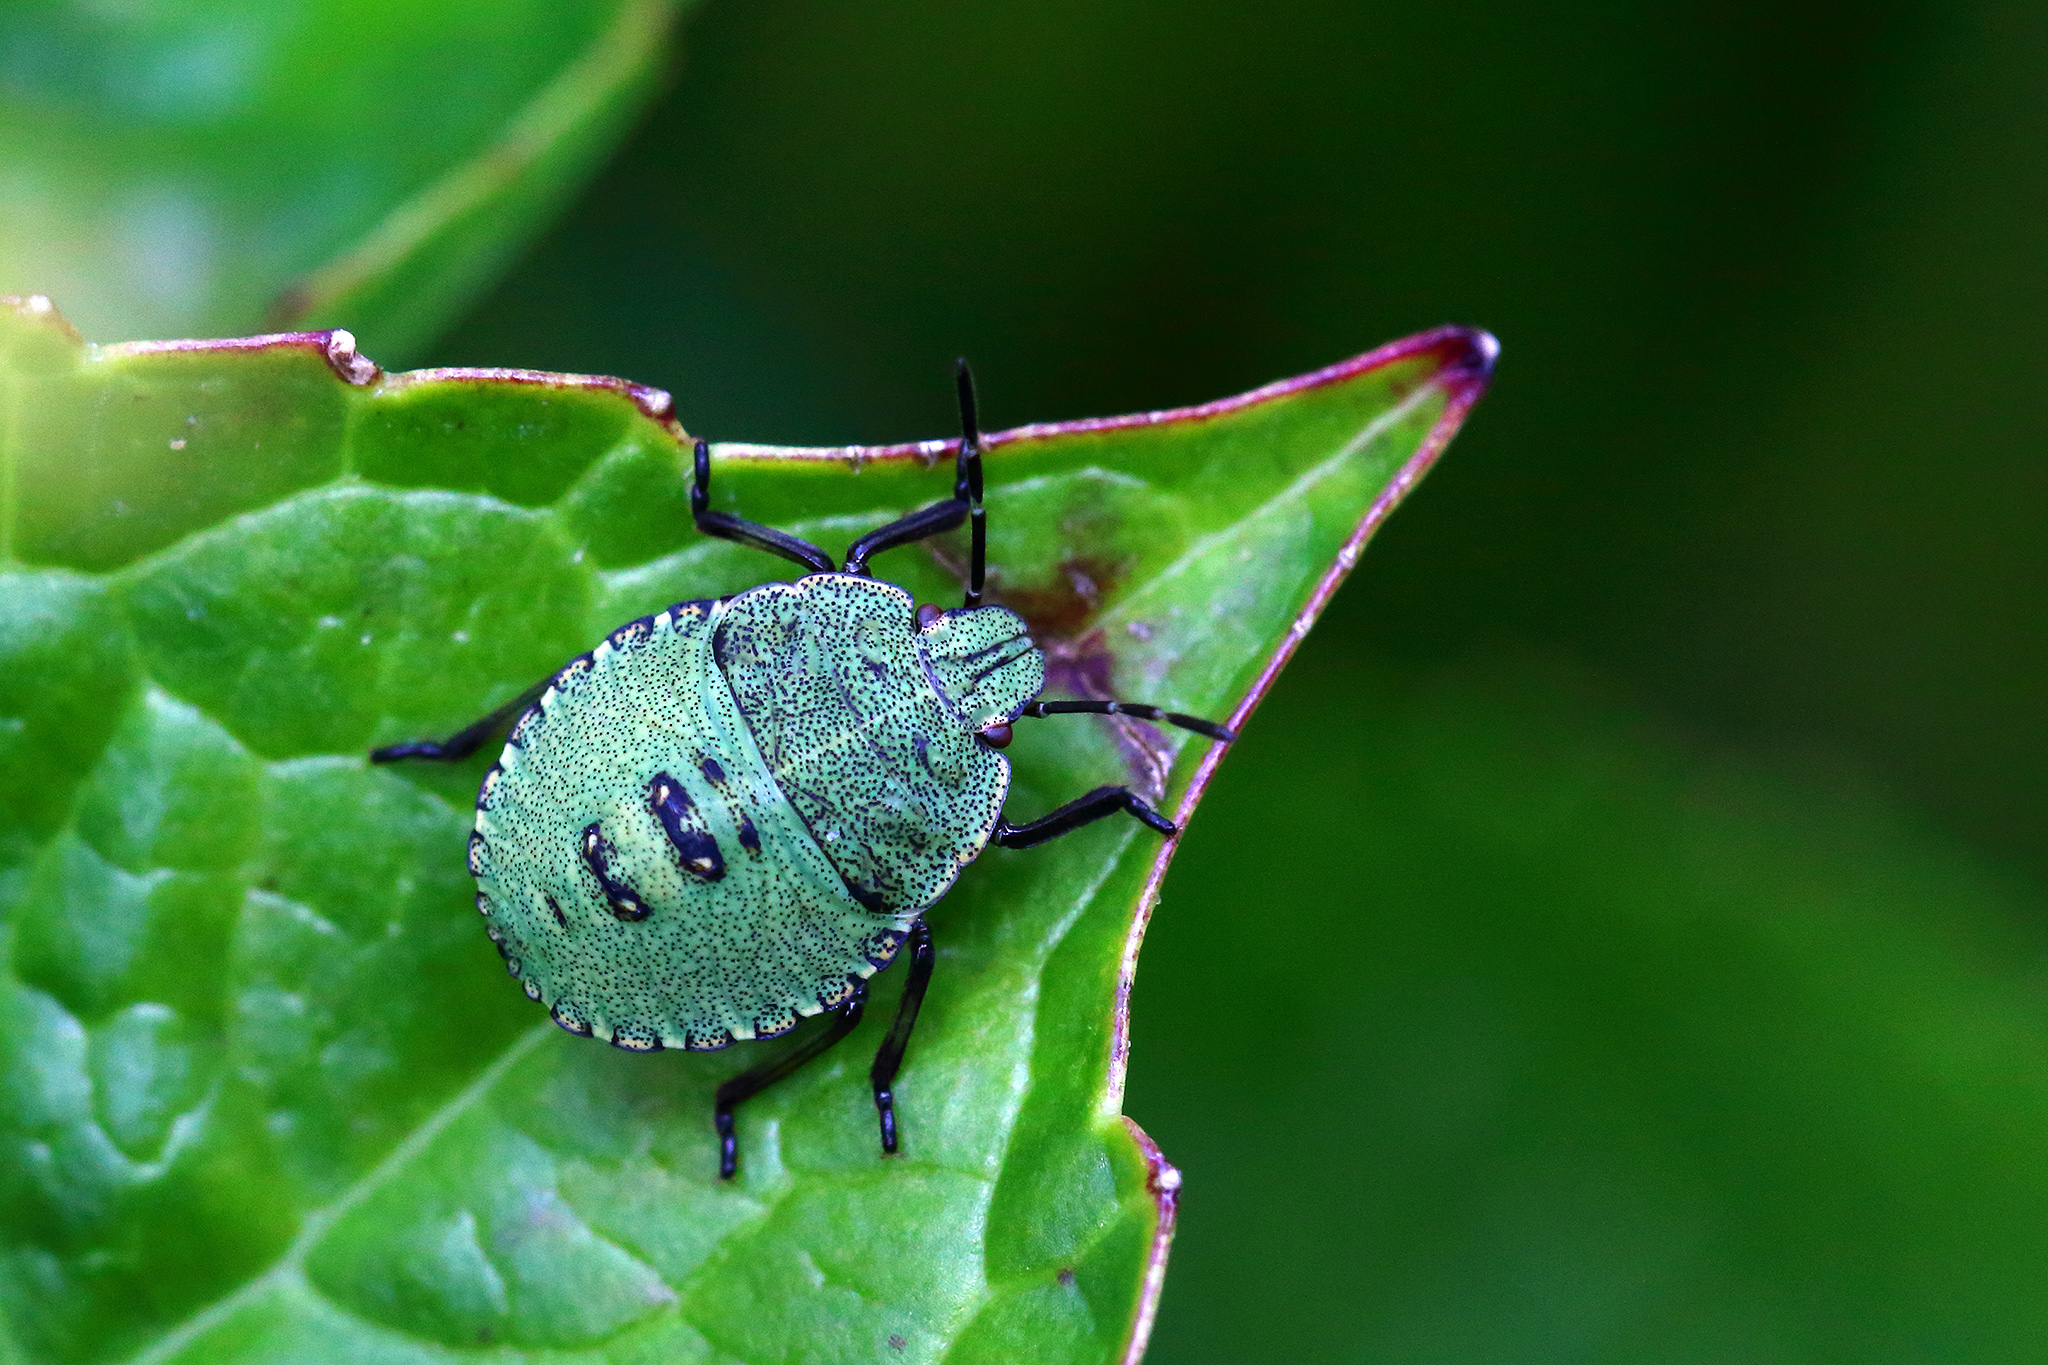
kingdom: Animalia
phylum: Arthropoda
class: Insecta
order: Hemiptera
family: Pentatomidae
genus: Palomena
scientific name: Palomena prasina
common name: Green shieldbug
